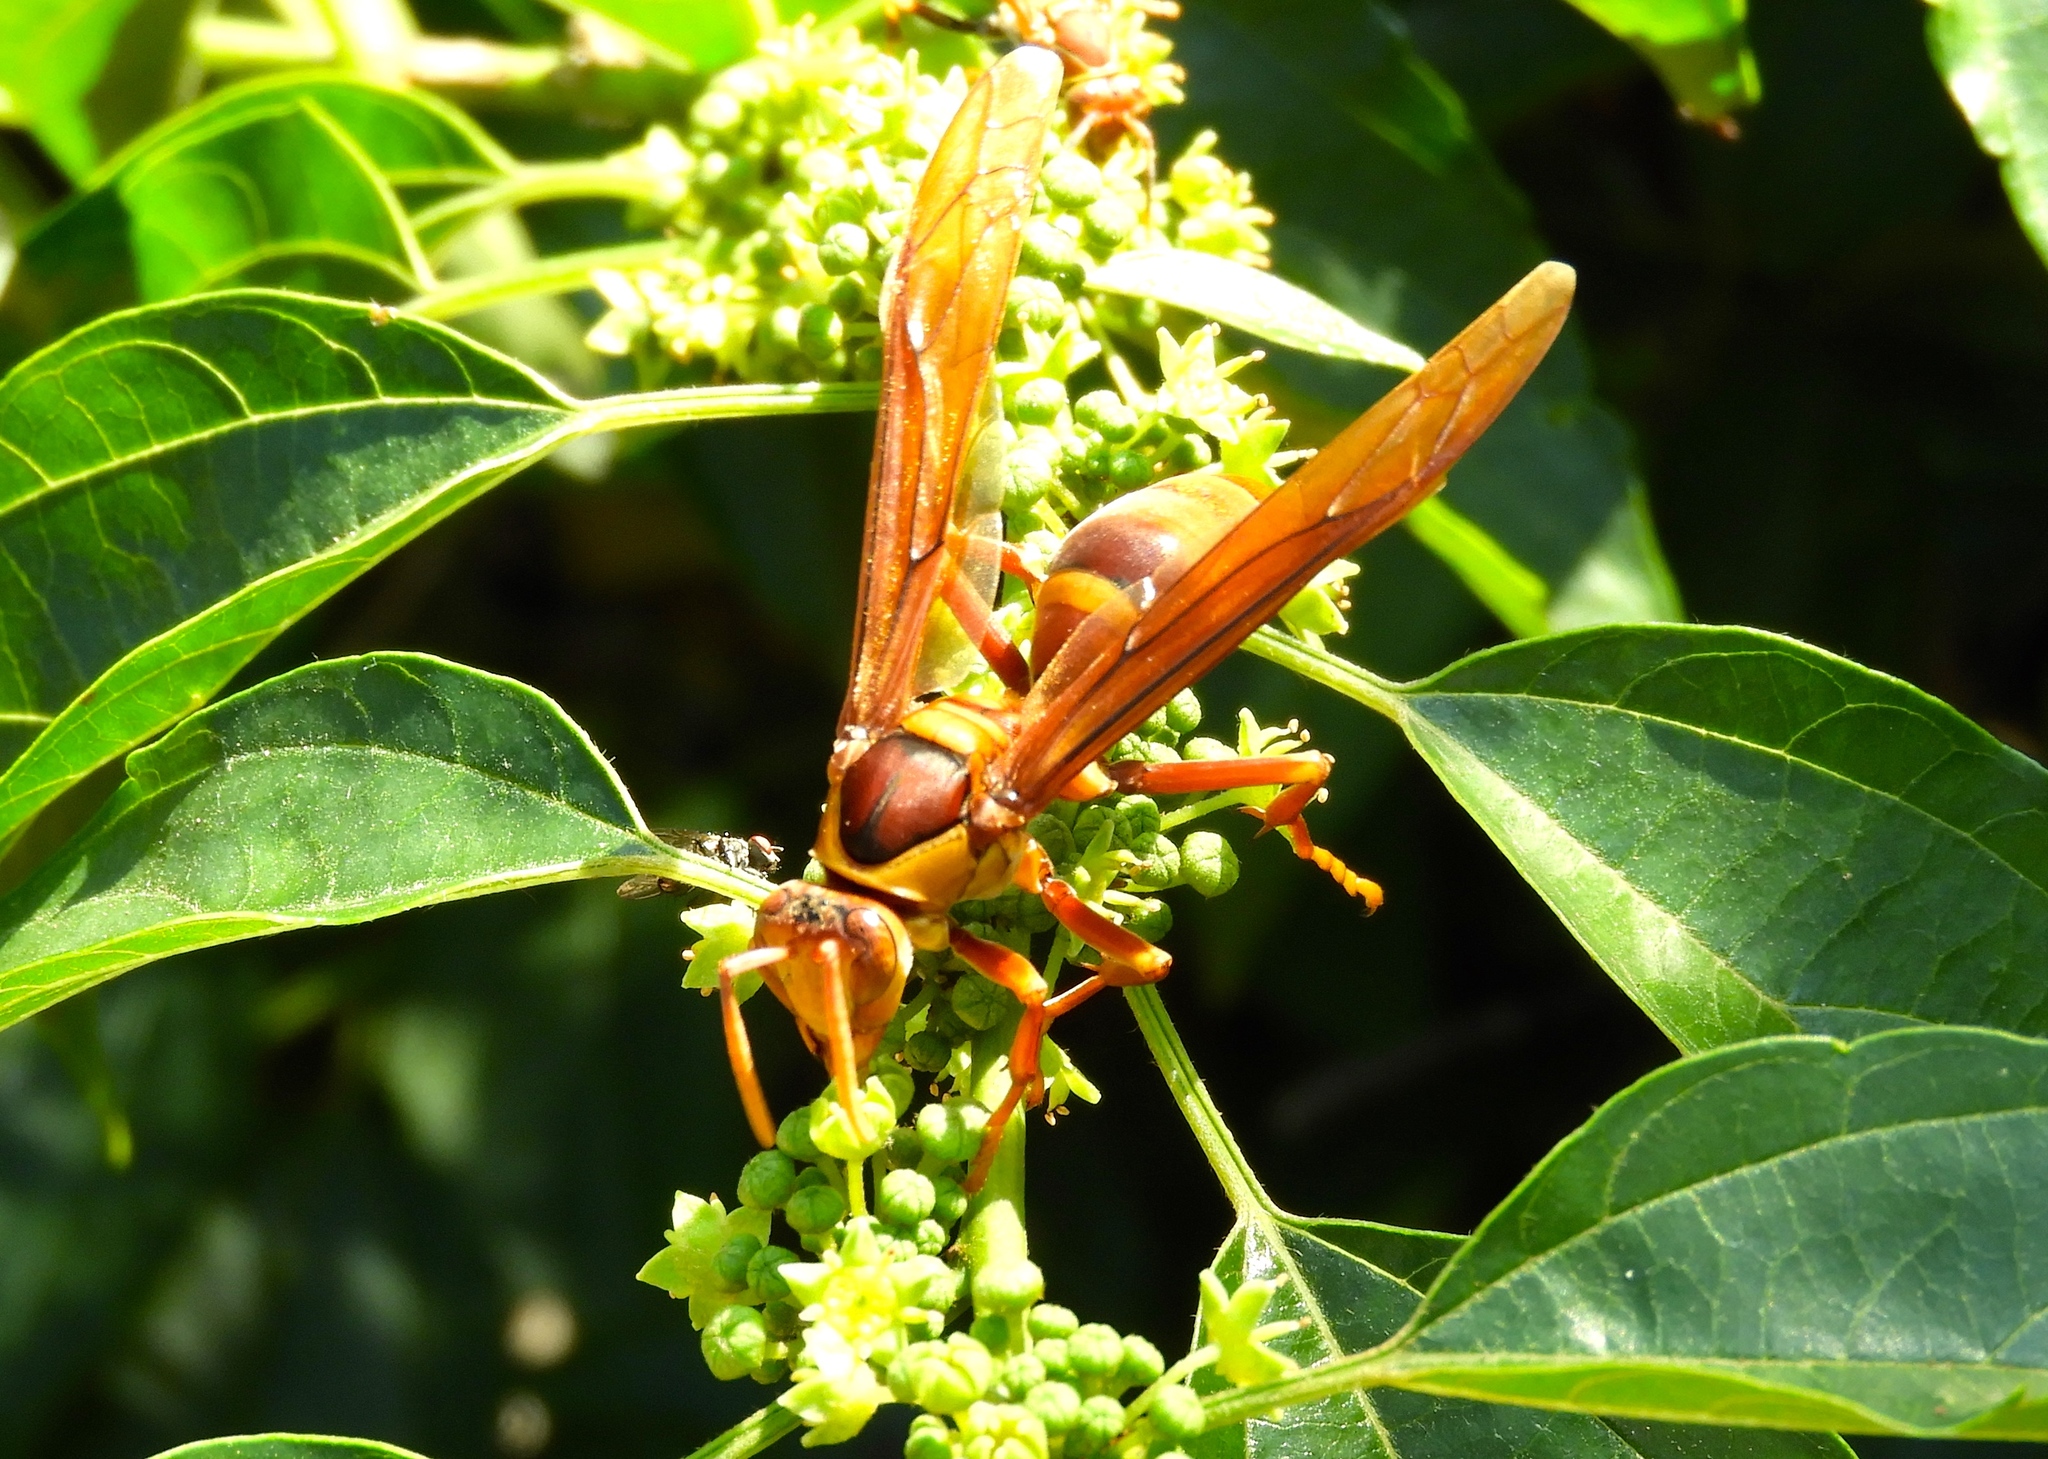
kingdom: Animalia
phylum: Arthropoda
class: Insecta
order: Hymenoptera
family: Eumenidae
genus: Polistes
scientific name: Polistes carnifex
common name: Paper wasp
